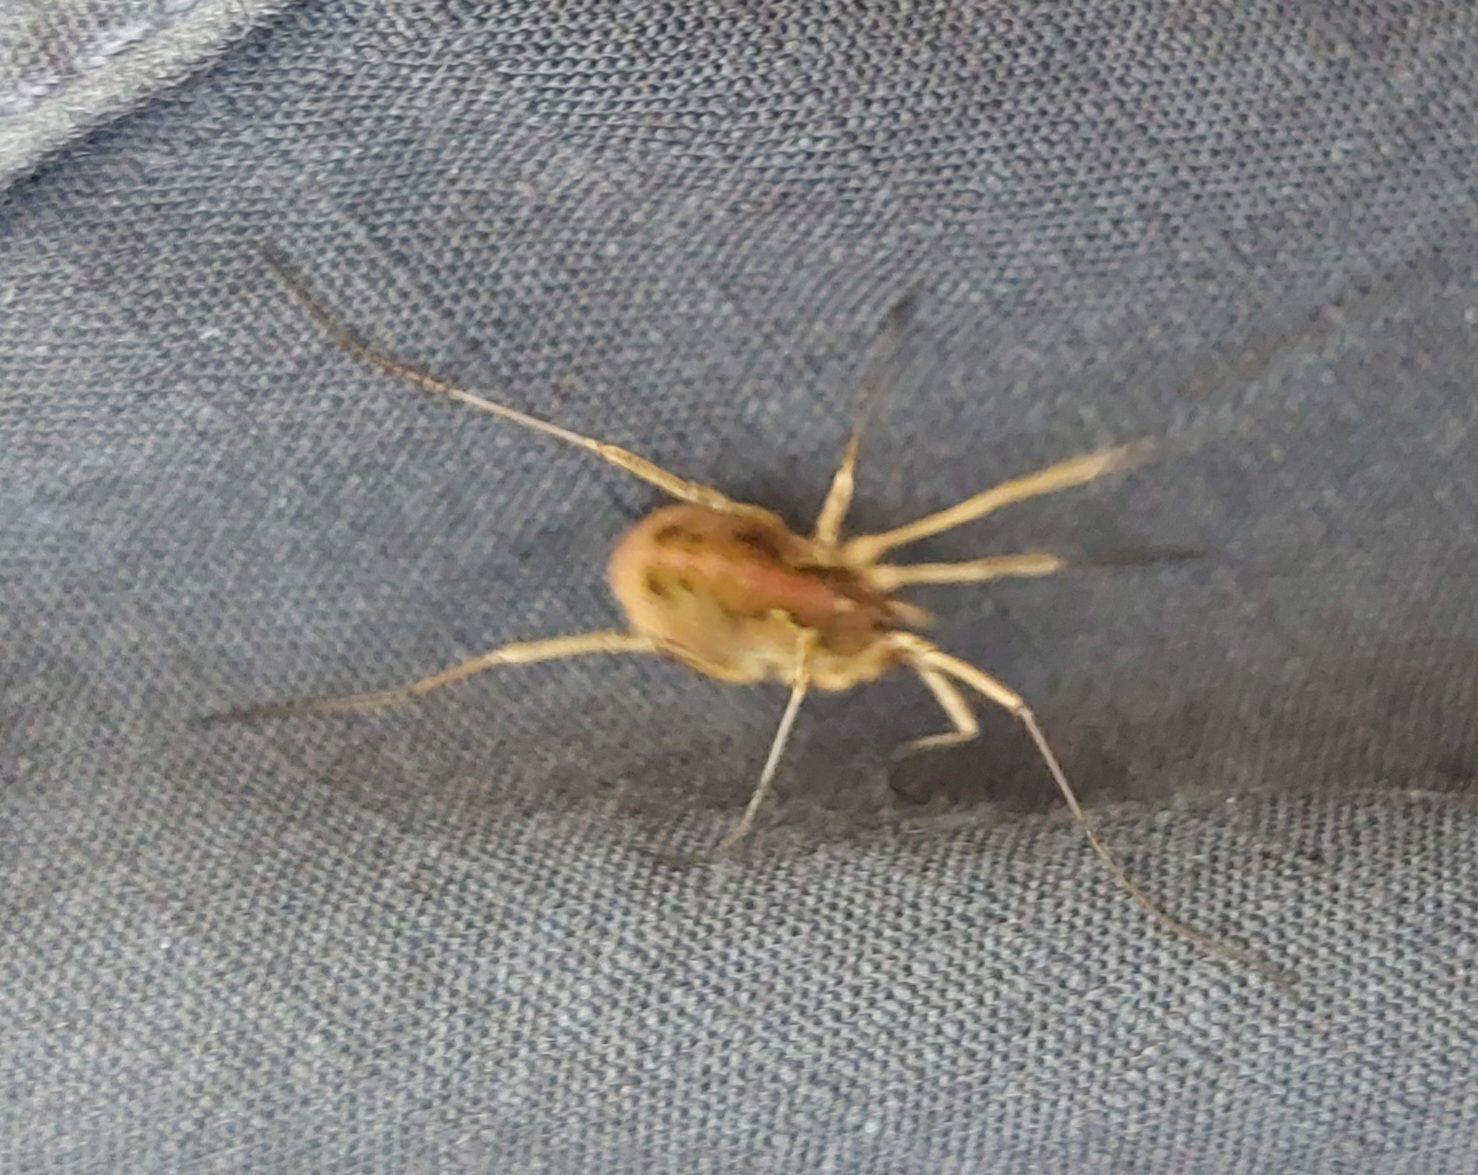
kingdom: Animalia
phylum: Arthropoda
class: Arachnida
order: Opiliones
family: Phalangiidae
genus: Mitopus
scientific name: Mitopus morio
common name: Saddleback harvestman
